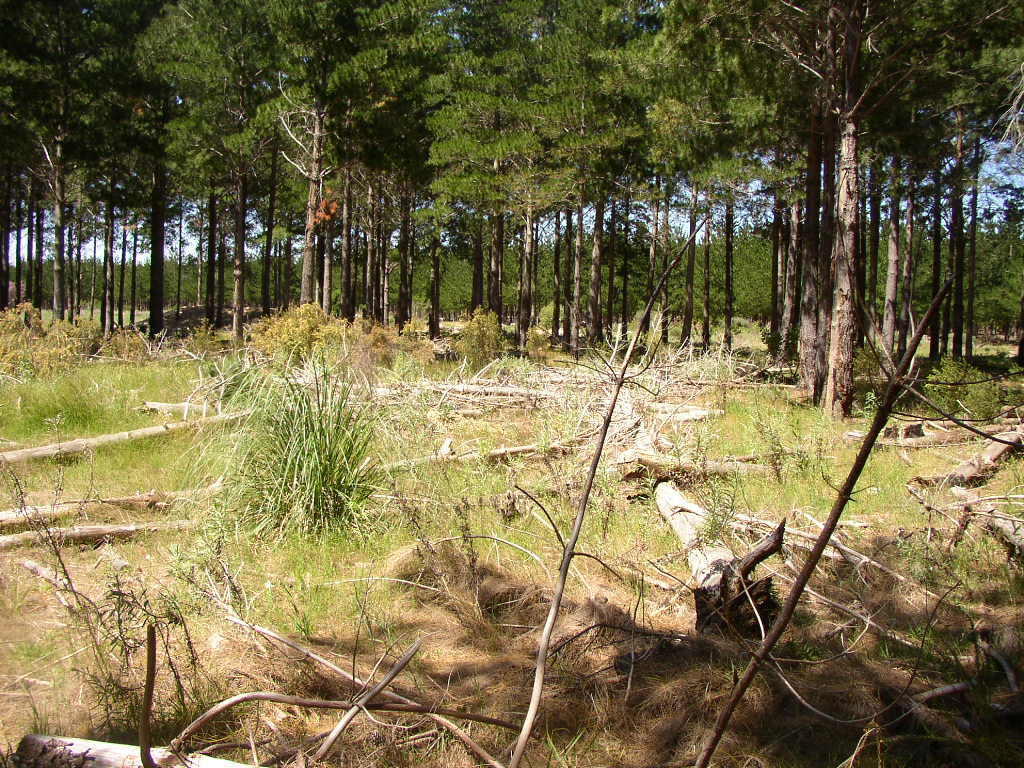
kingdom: Plantae
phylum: Tracheophyta
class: Liliopsida
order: Poales
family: Poaceae
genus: Cortaderia
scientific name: Cortaderia selloana
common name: Uruguayan pampas grass
